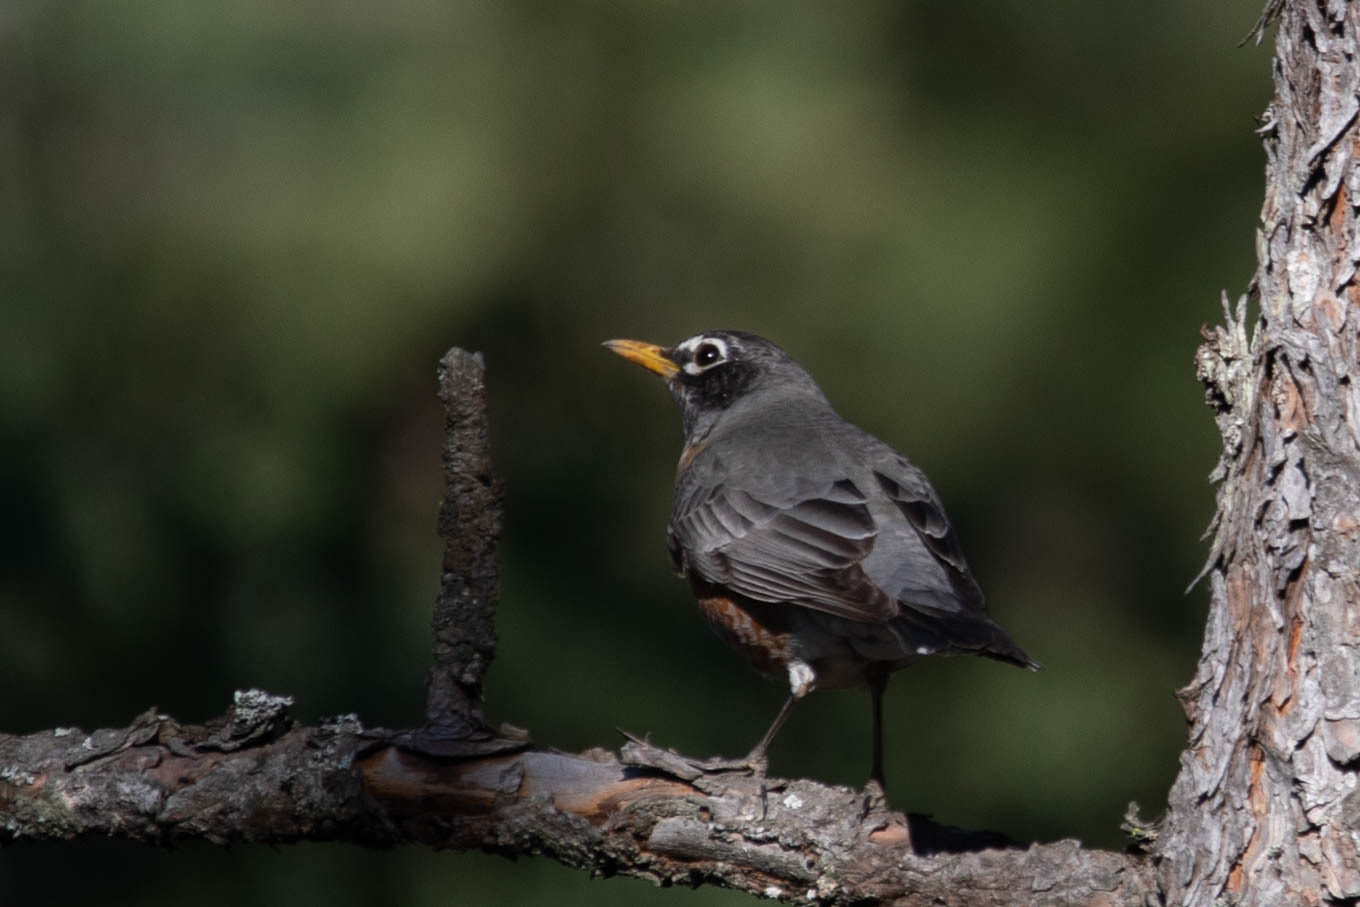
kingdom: Animalia
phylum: Chordata
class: Aves
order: Passeriformes
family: Turdidae
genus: Turdus
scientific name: Turdus migratorius
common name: American robin
